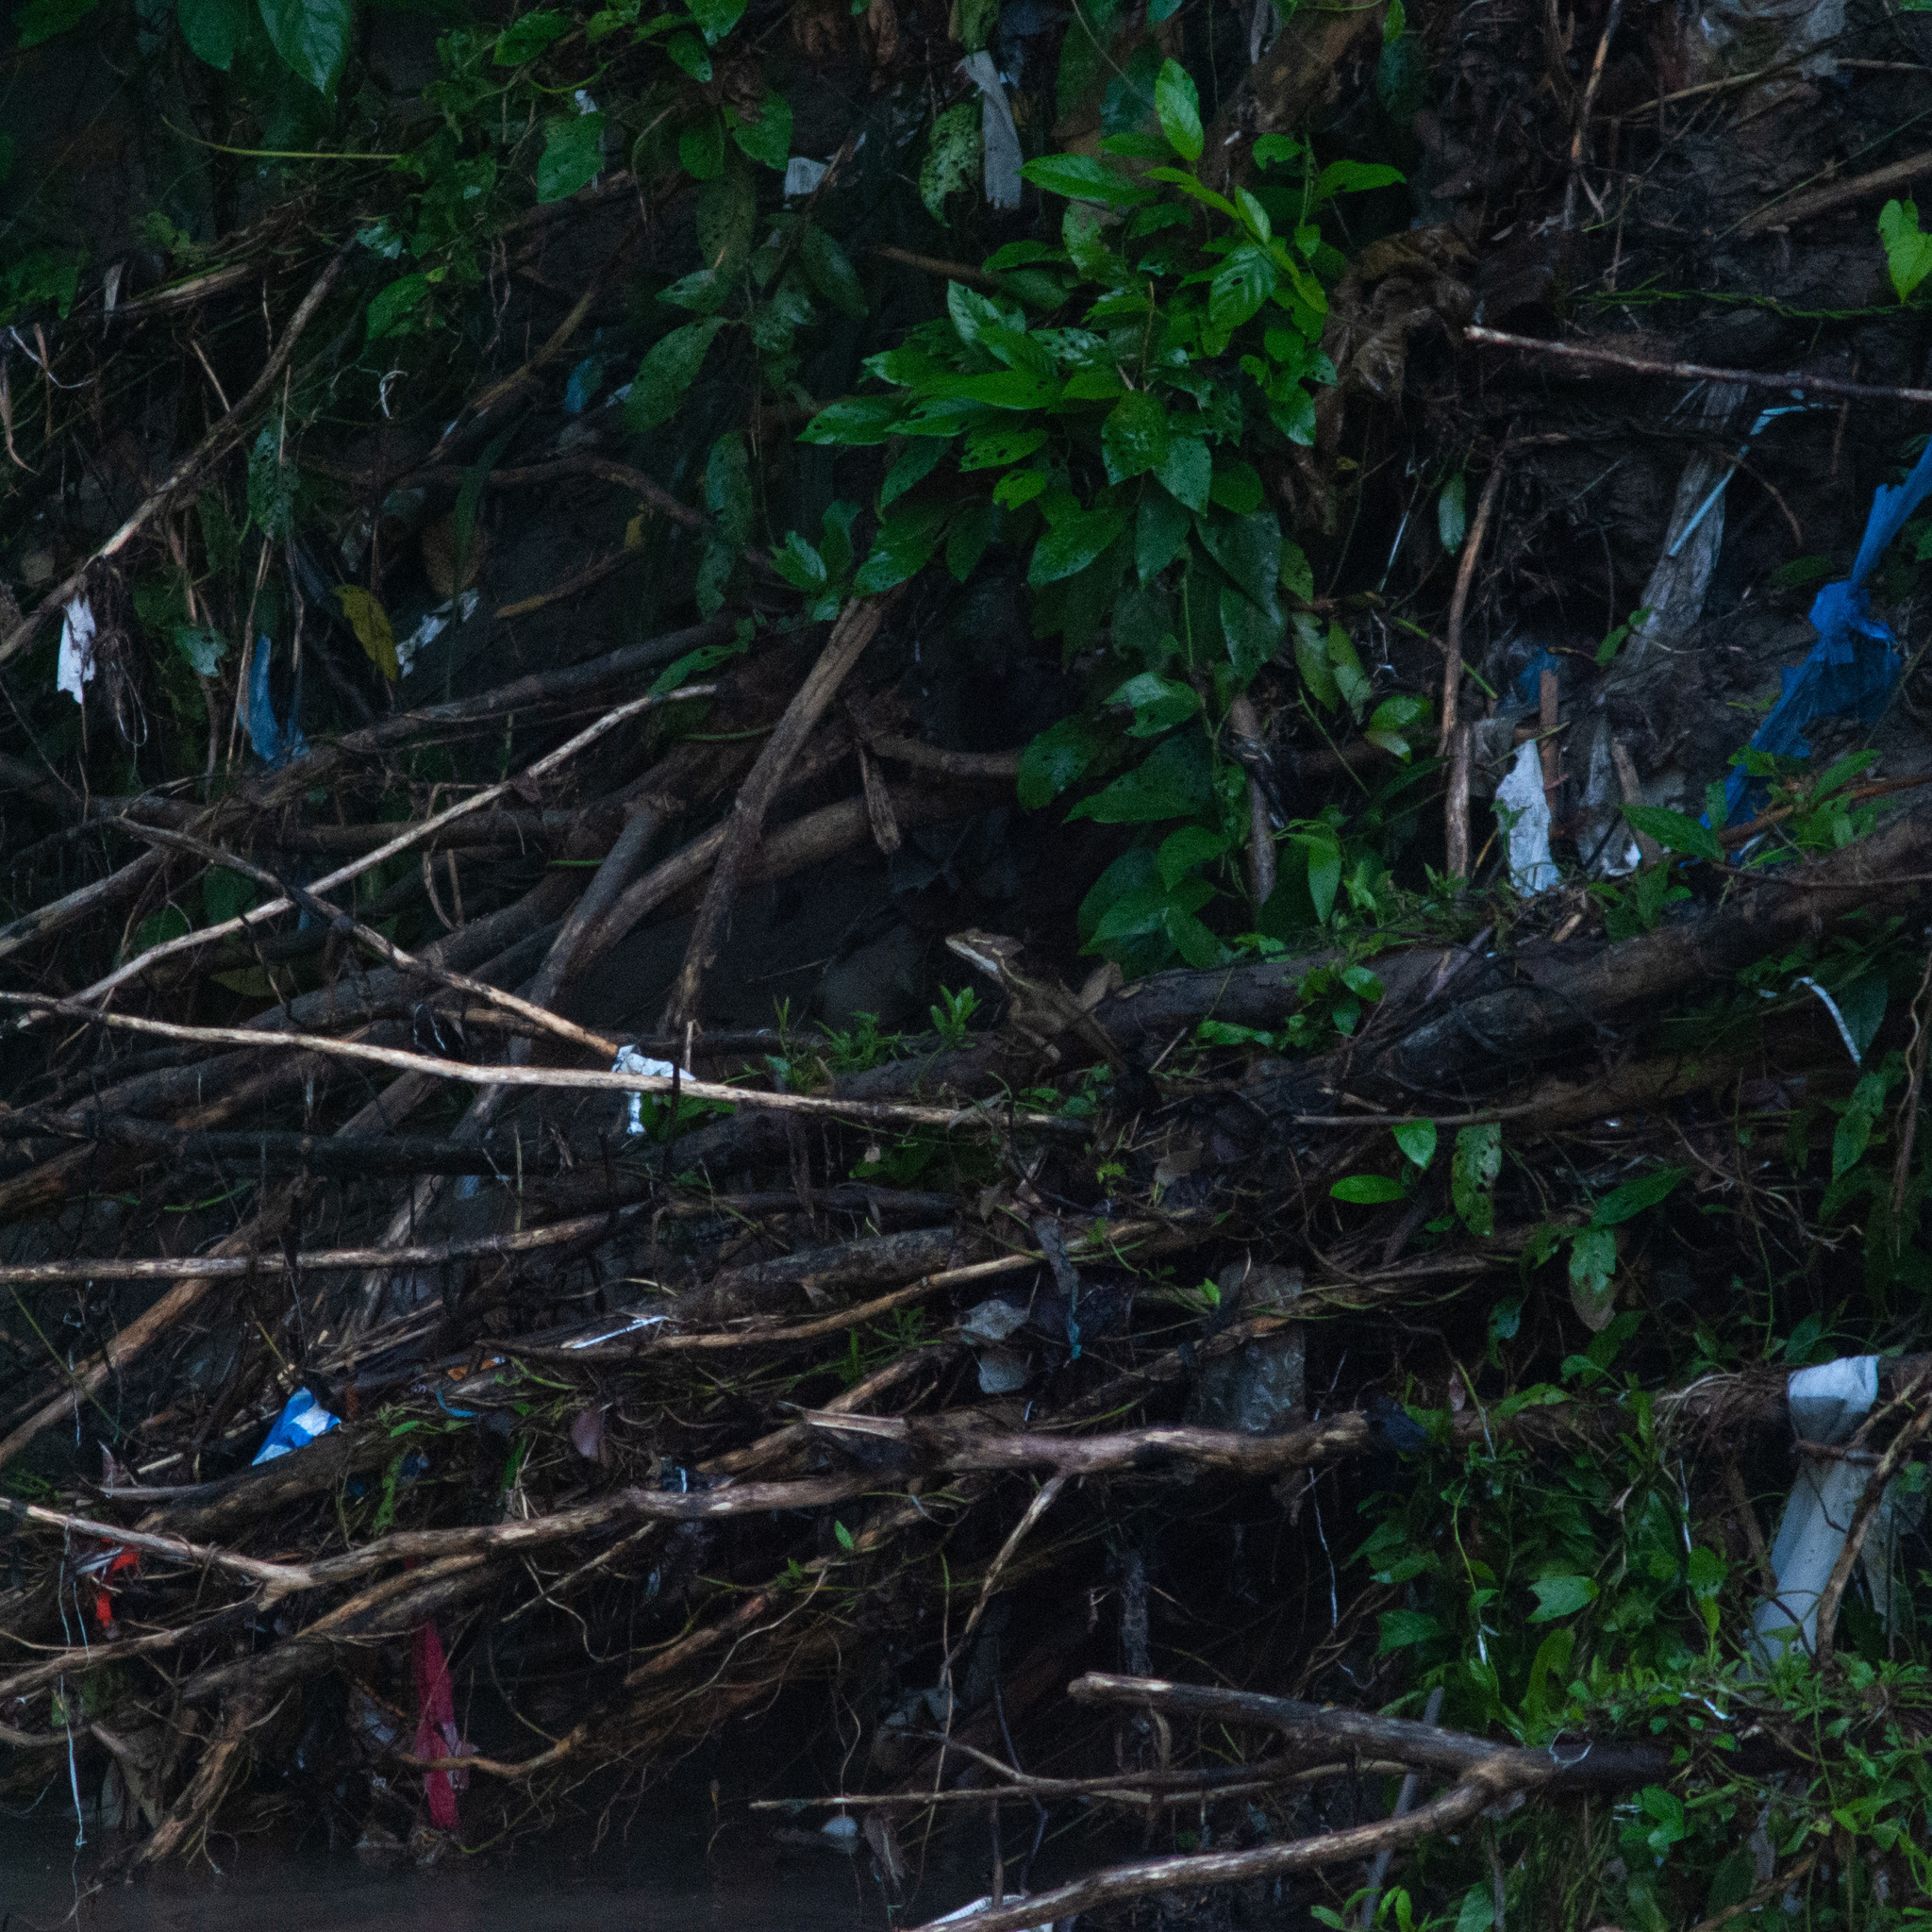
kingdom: Animalia
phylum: Chordata
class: Squamata
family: Corytophanidae
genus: Basiliscus
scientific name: Basiliscus basiliscus
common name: Common basilisk
